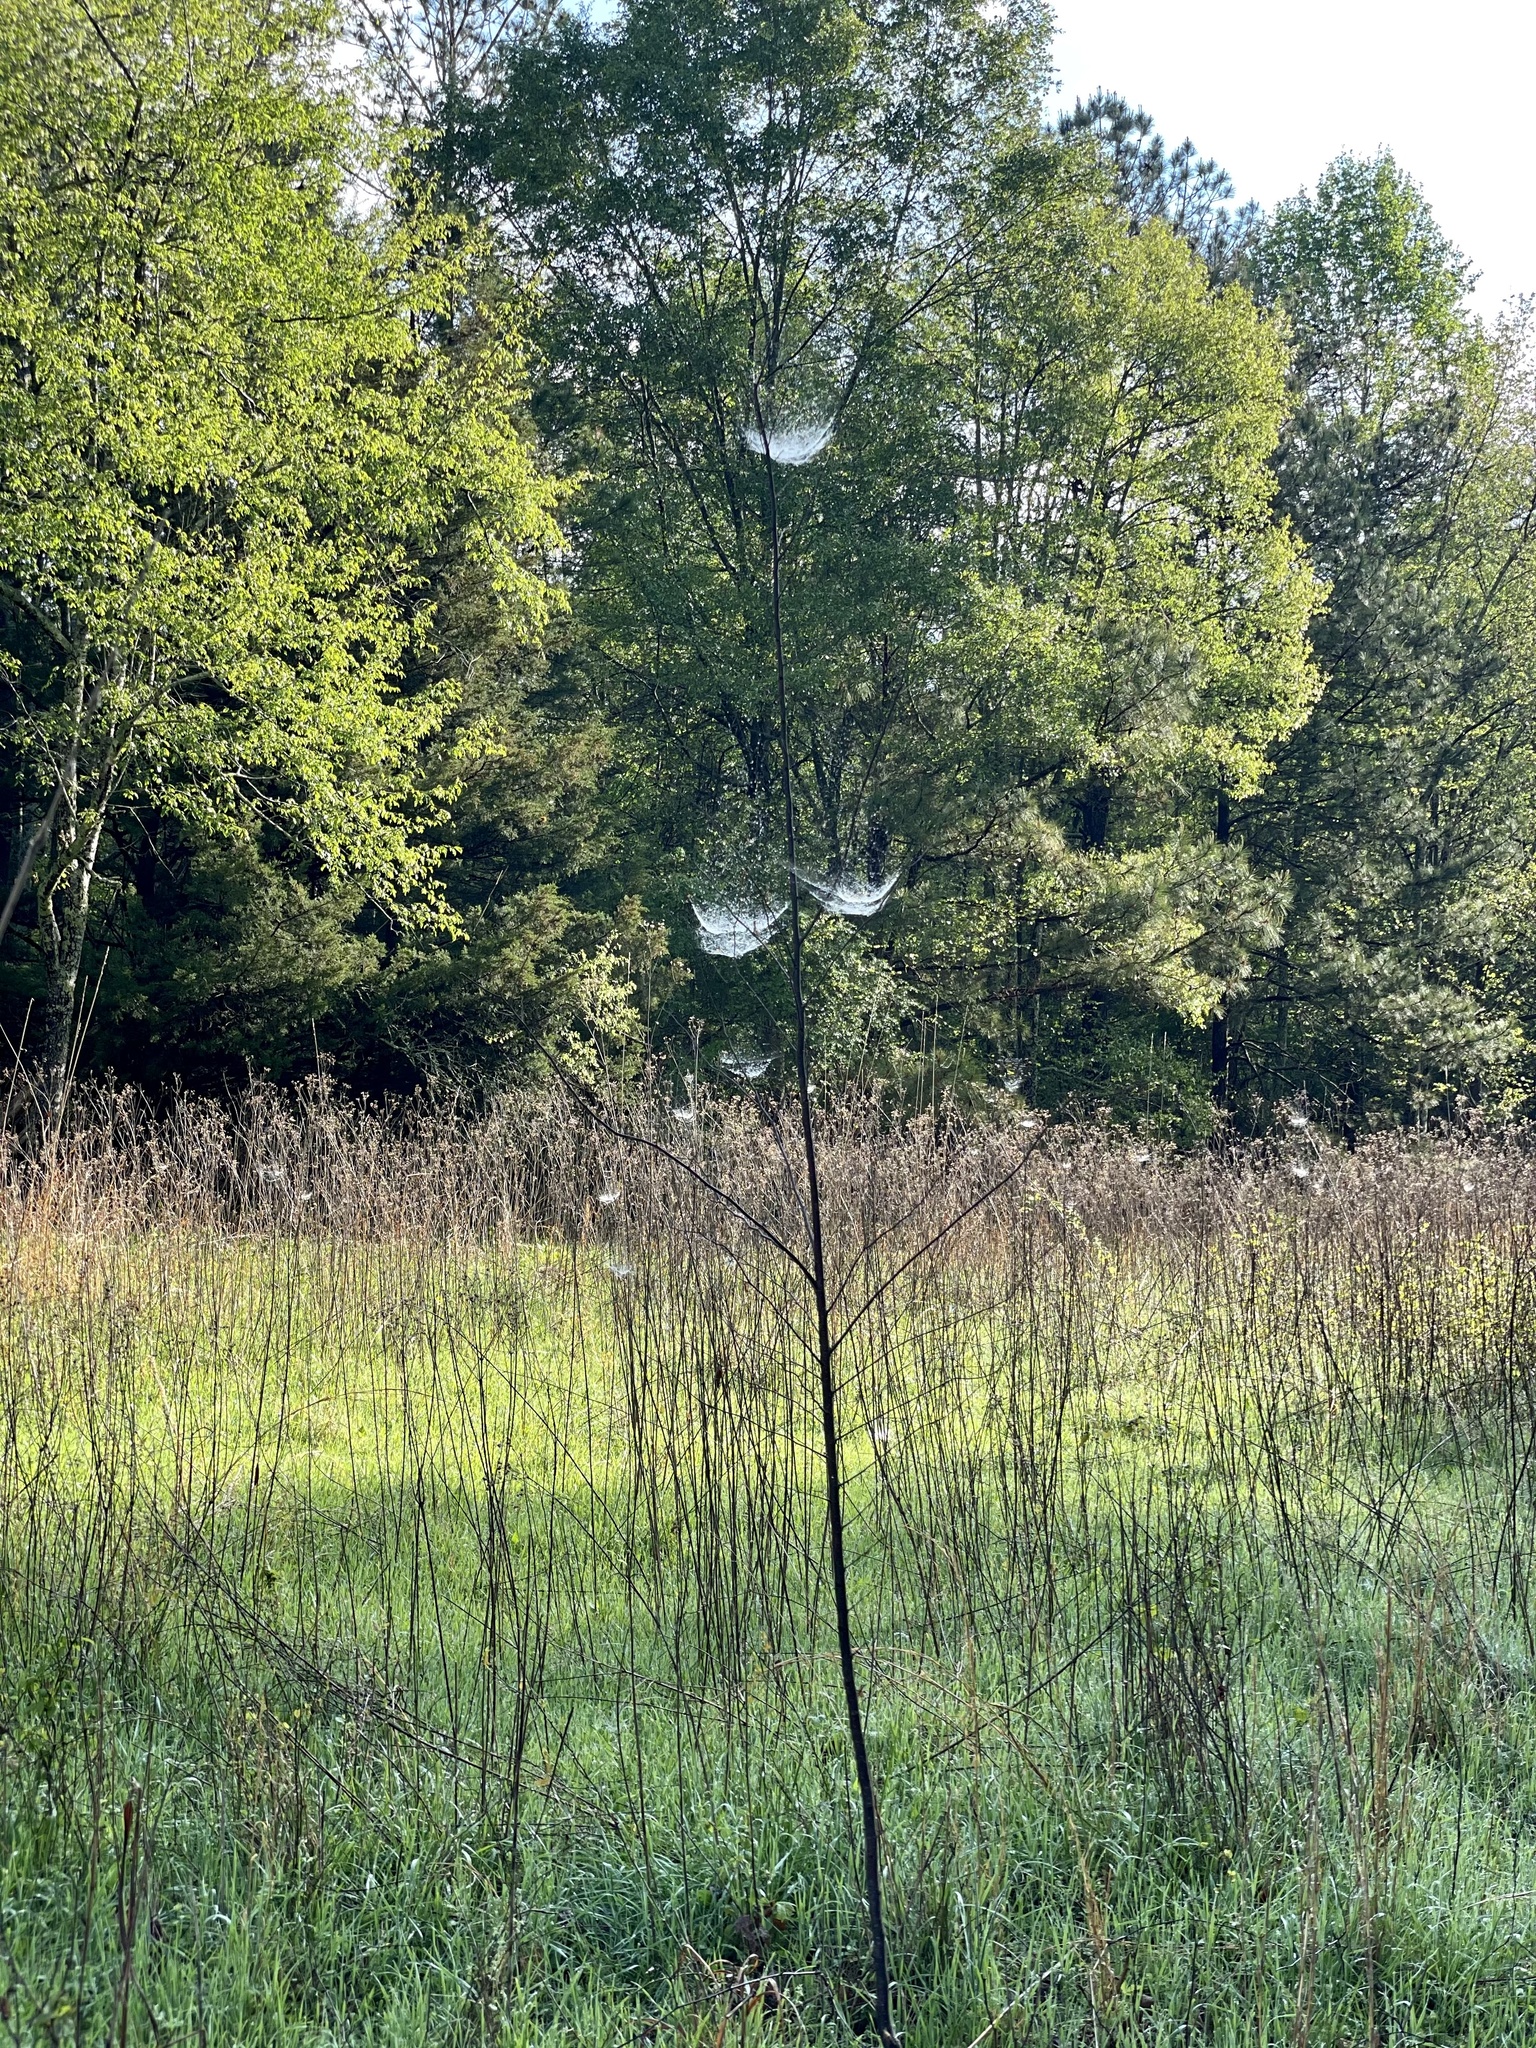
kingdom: Animalia
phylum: Arthropoda
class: Arachnida
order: Araneae
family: Linyphiidae
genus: Frontinella
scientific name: Frontinella pyramitela
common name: Bowl-and-doily spider
